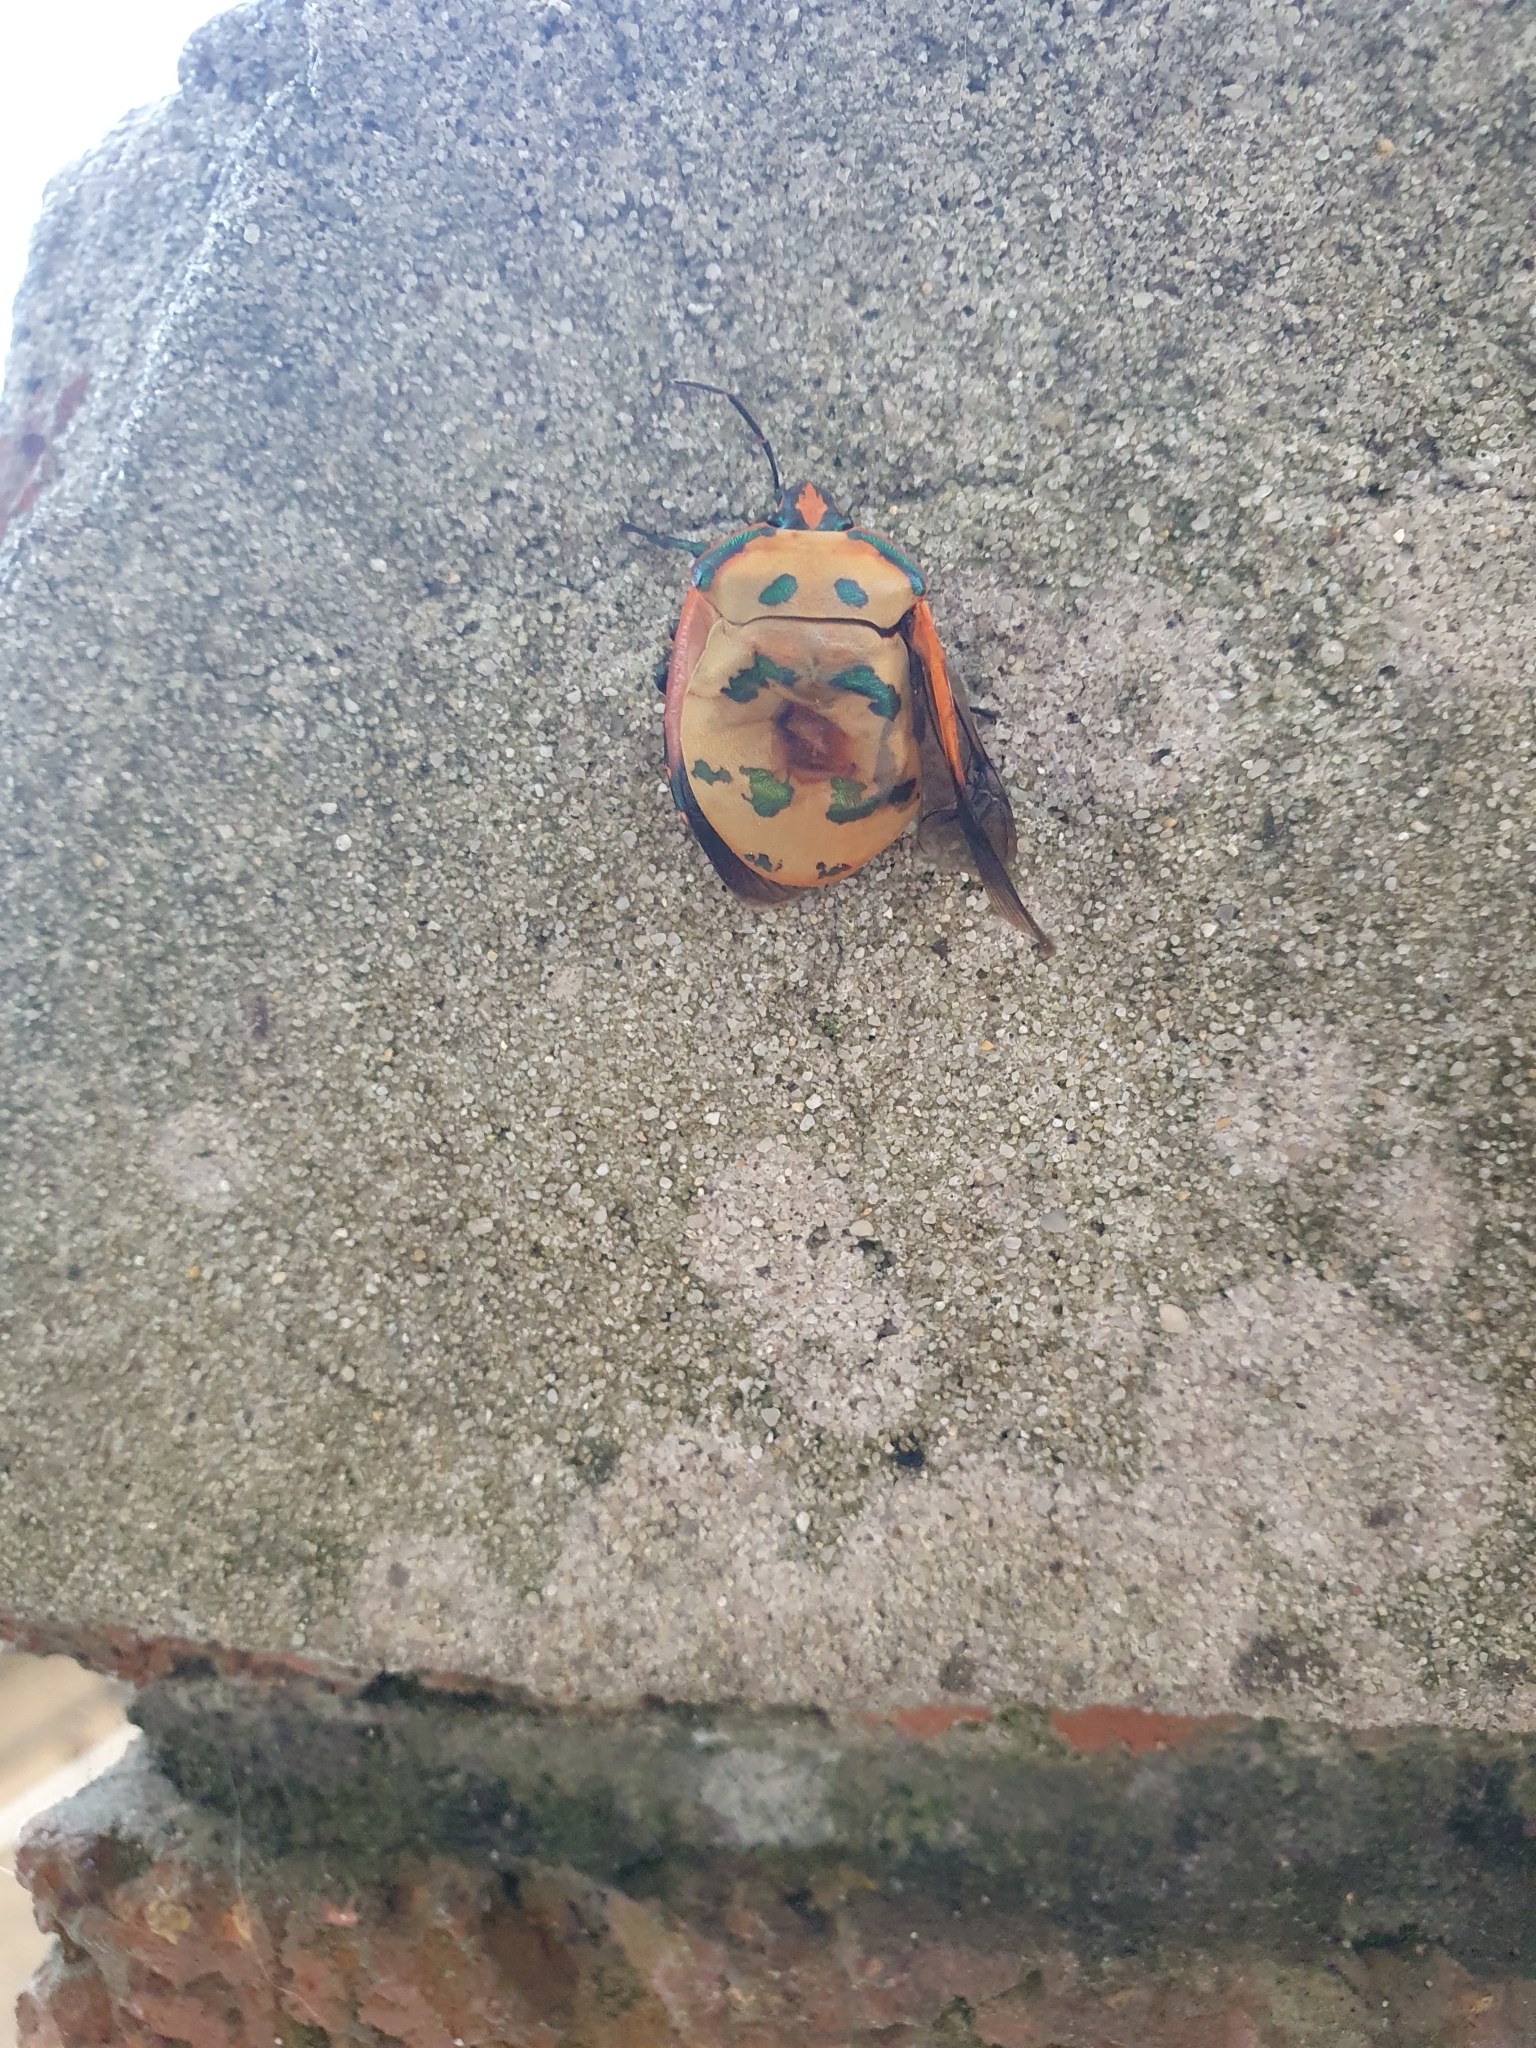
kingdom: Animalia
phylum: Arthropoda
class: Insecta
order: Hemiptera
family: Scutelleridae
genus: Tectocoris
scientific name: Tectocoris diophthalmus
